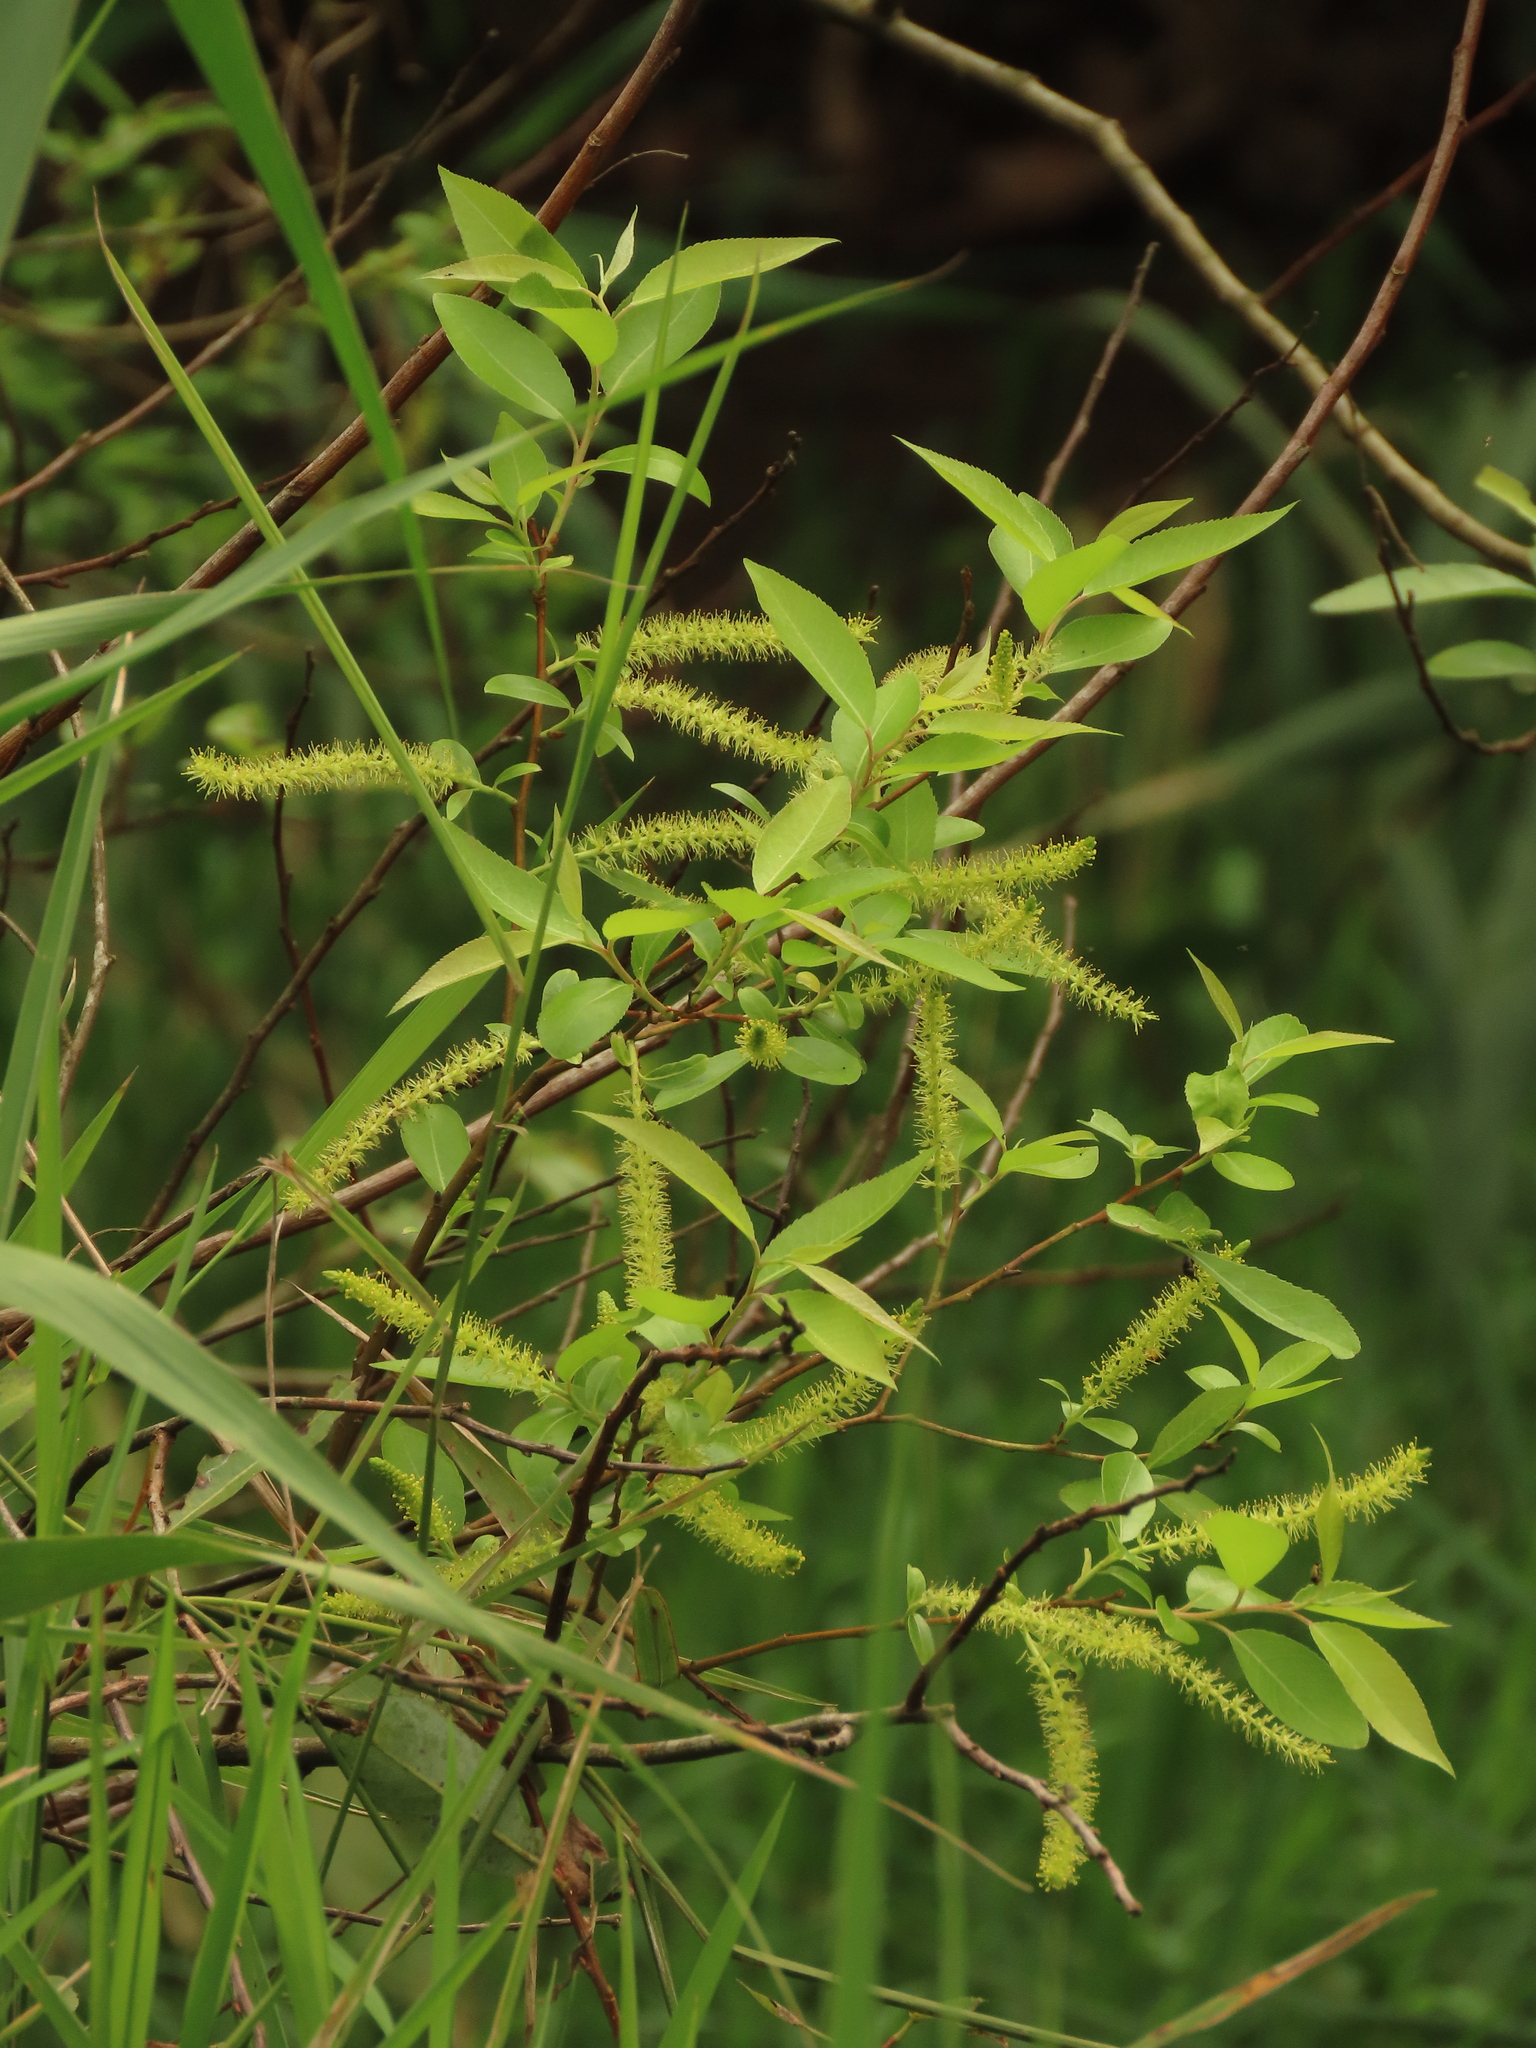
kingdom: Plantae
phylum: Tracheophyta
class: Magnoliopsida
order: Malpighiales
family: Salicaceae
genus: Salix
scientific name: Salix mesnyi
